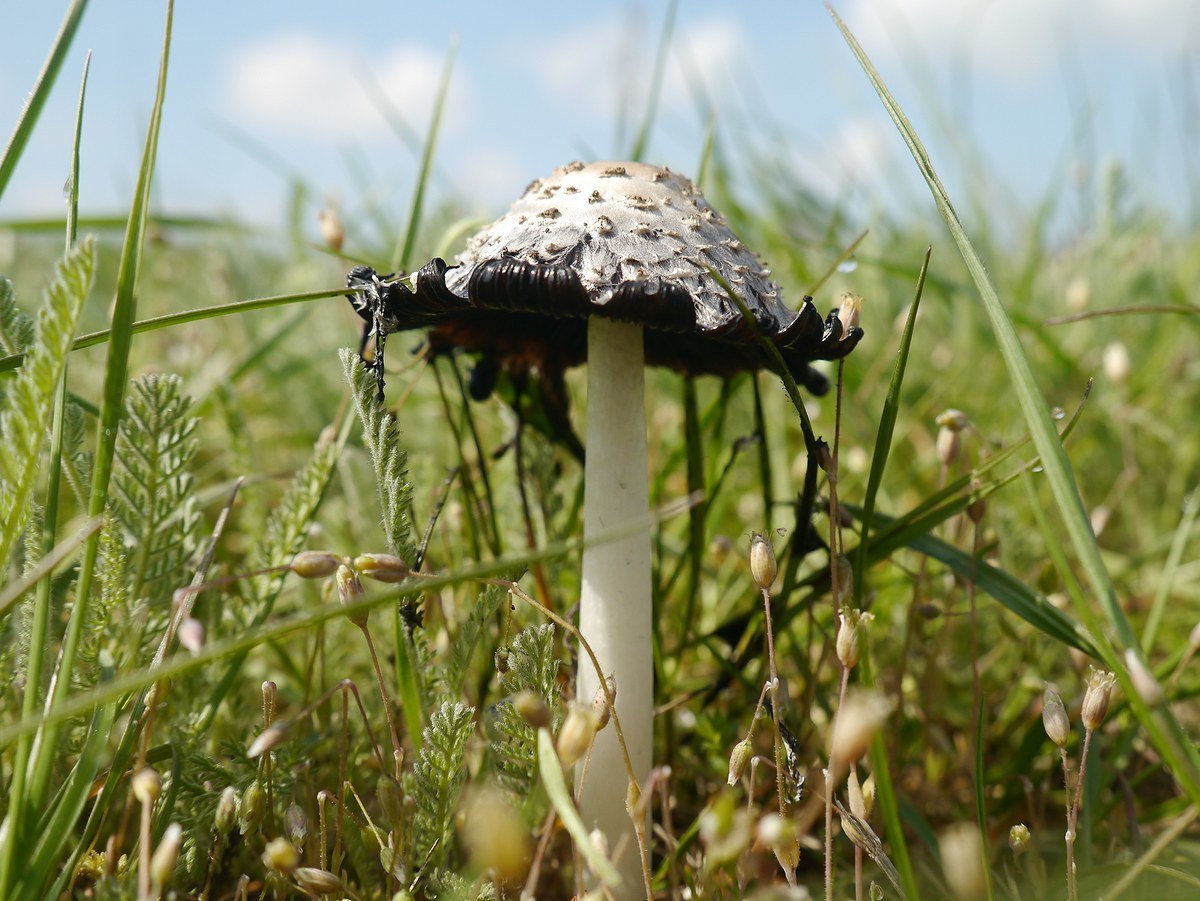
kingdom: Fungi
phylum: Basidiomycota
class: Agaricomycetes
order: Agaricales
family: Agaricaceae
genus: Coprinus
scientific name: Coprinus comatus
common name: Lawyer's wig
